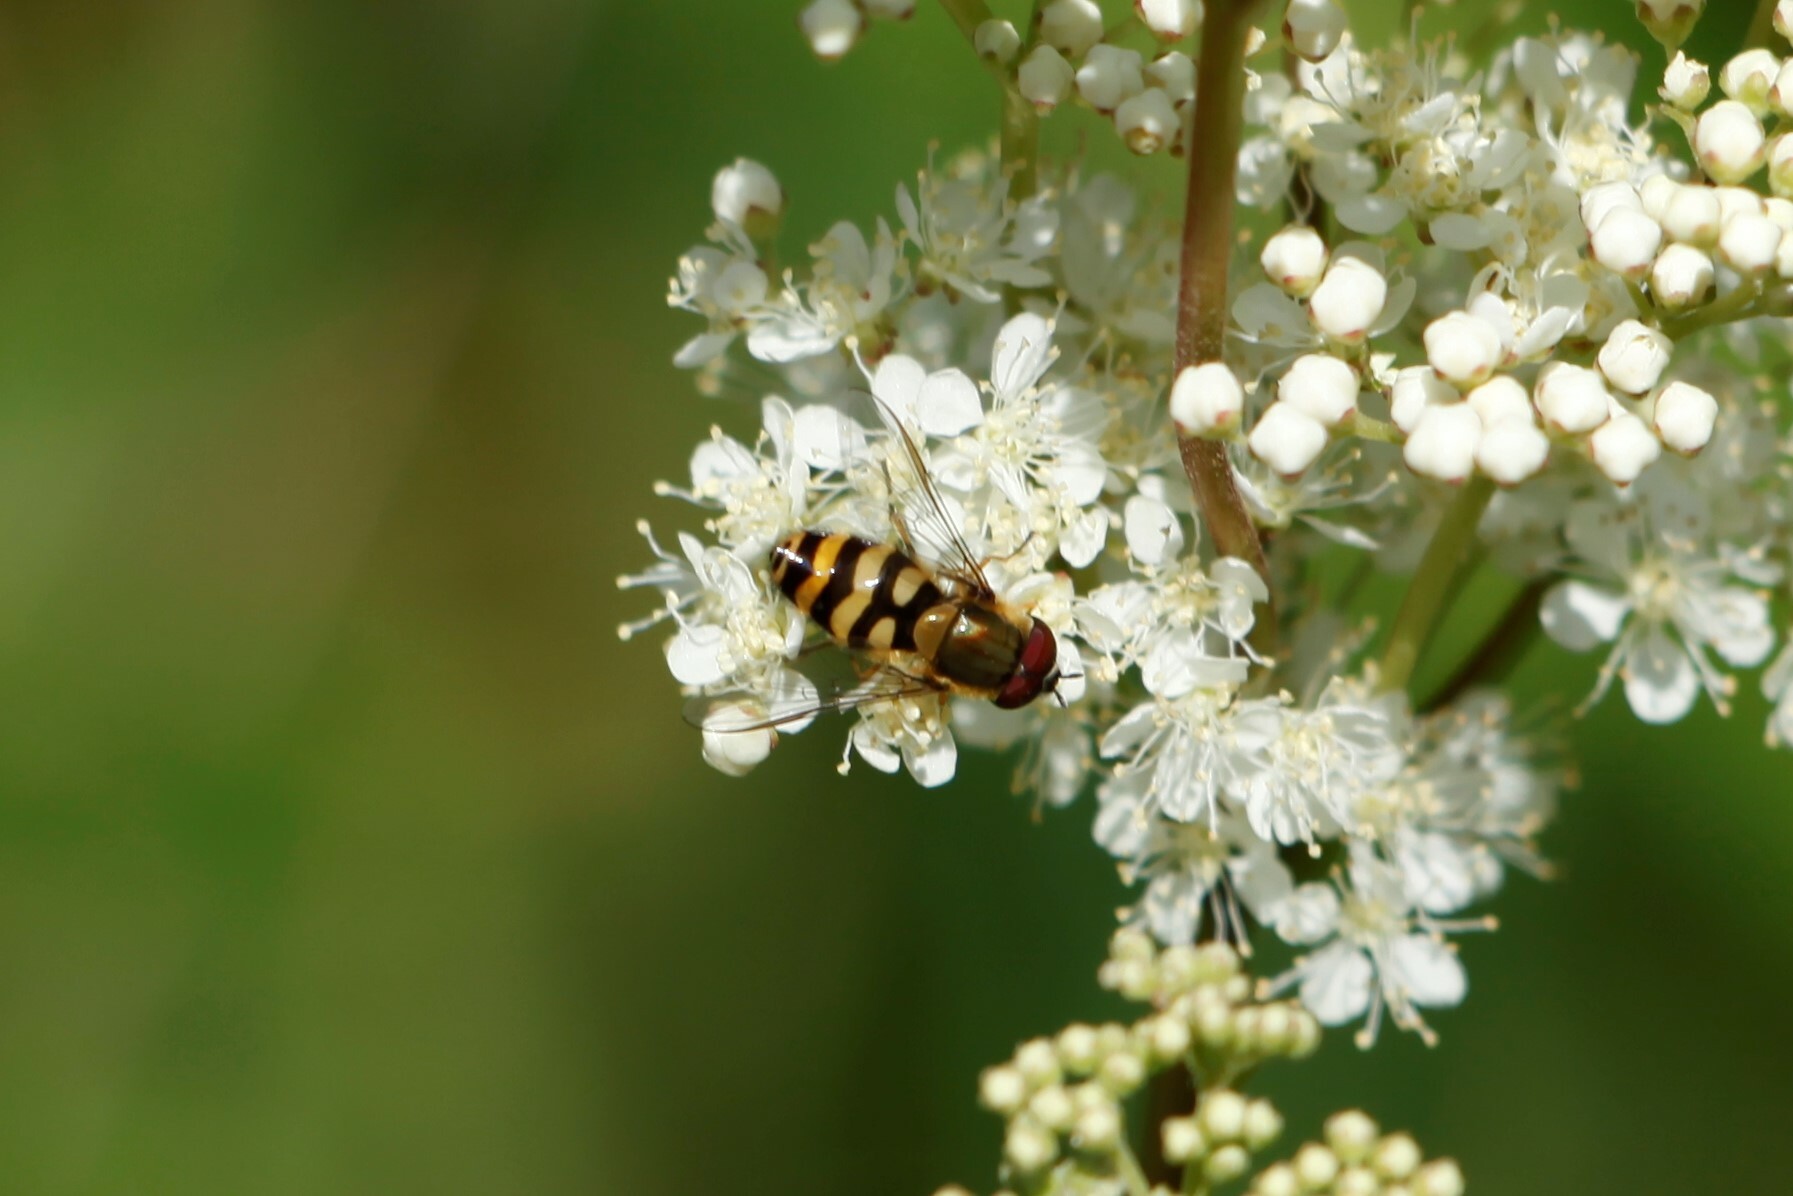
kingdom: Animalia
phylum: Arthropoda
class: Insecta
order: Diptera
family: Syrphidae
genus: Syrphus
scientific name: Syrphus
